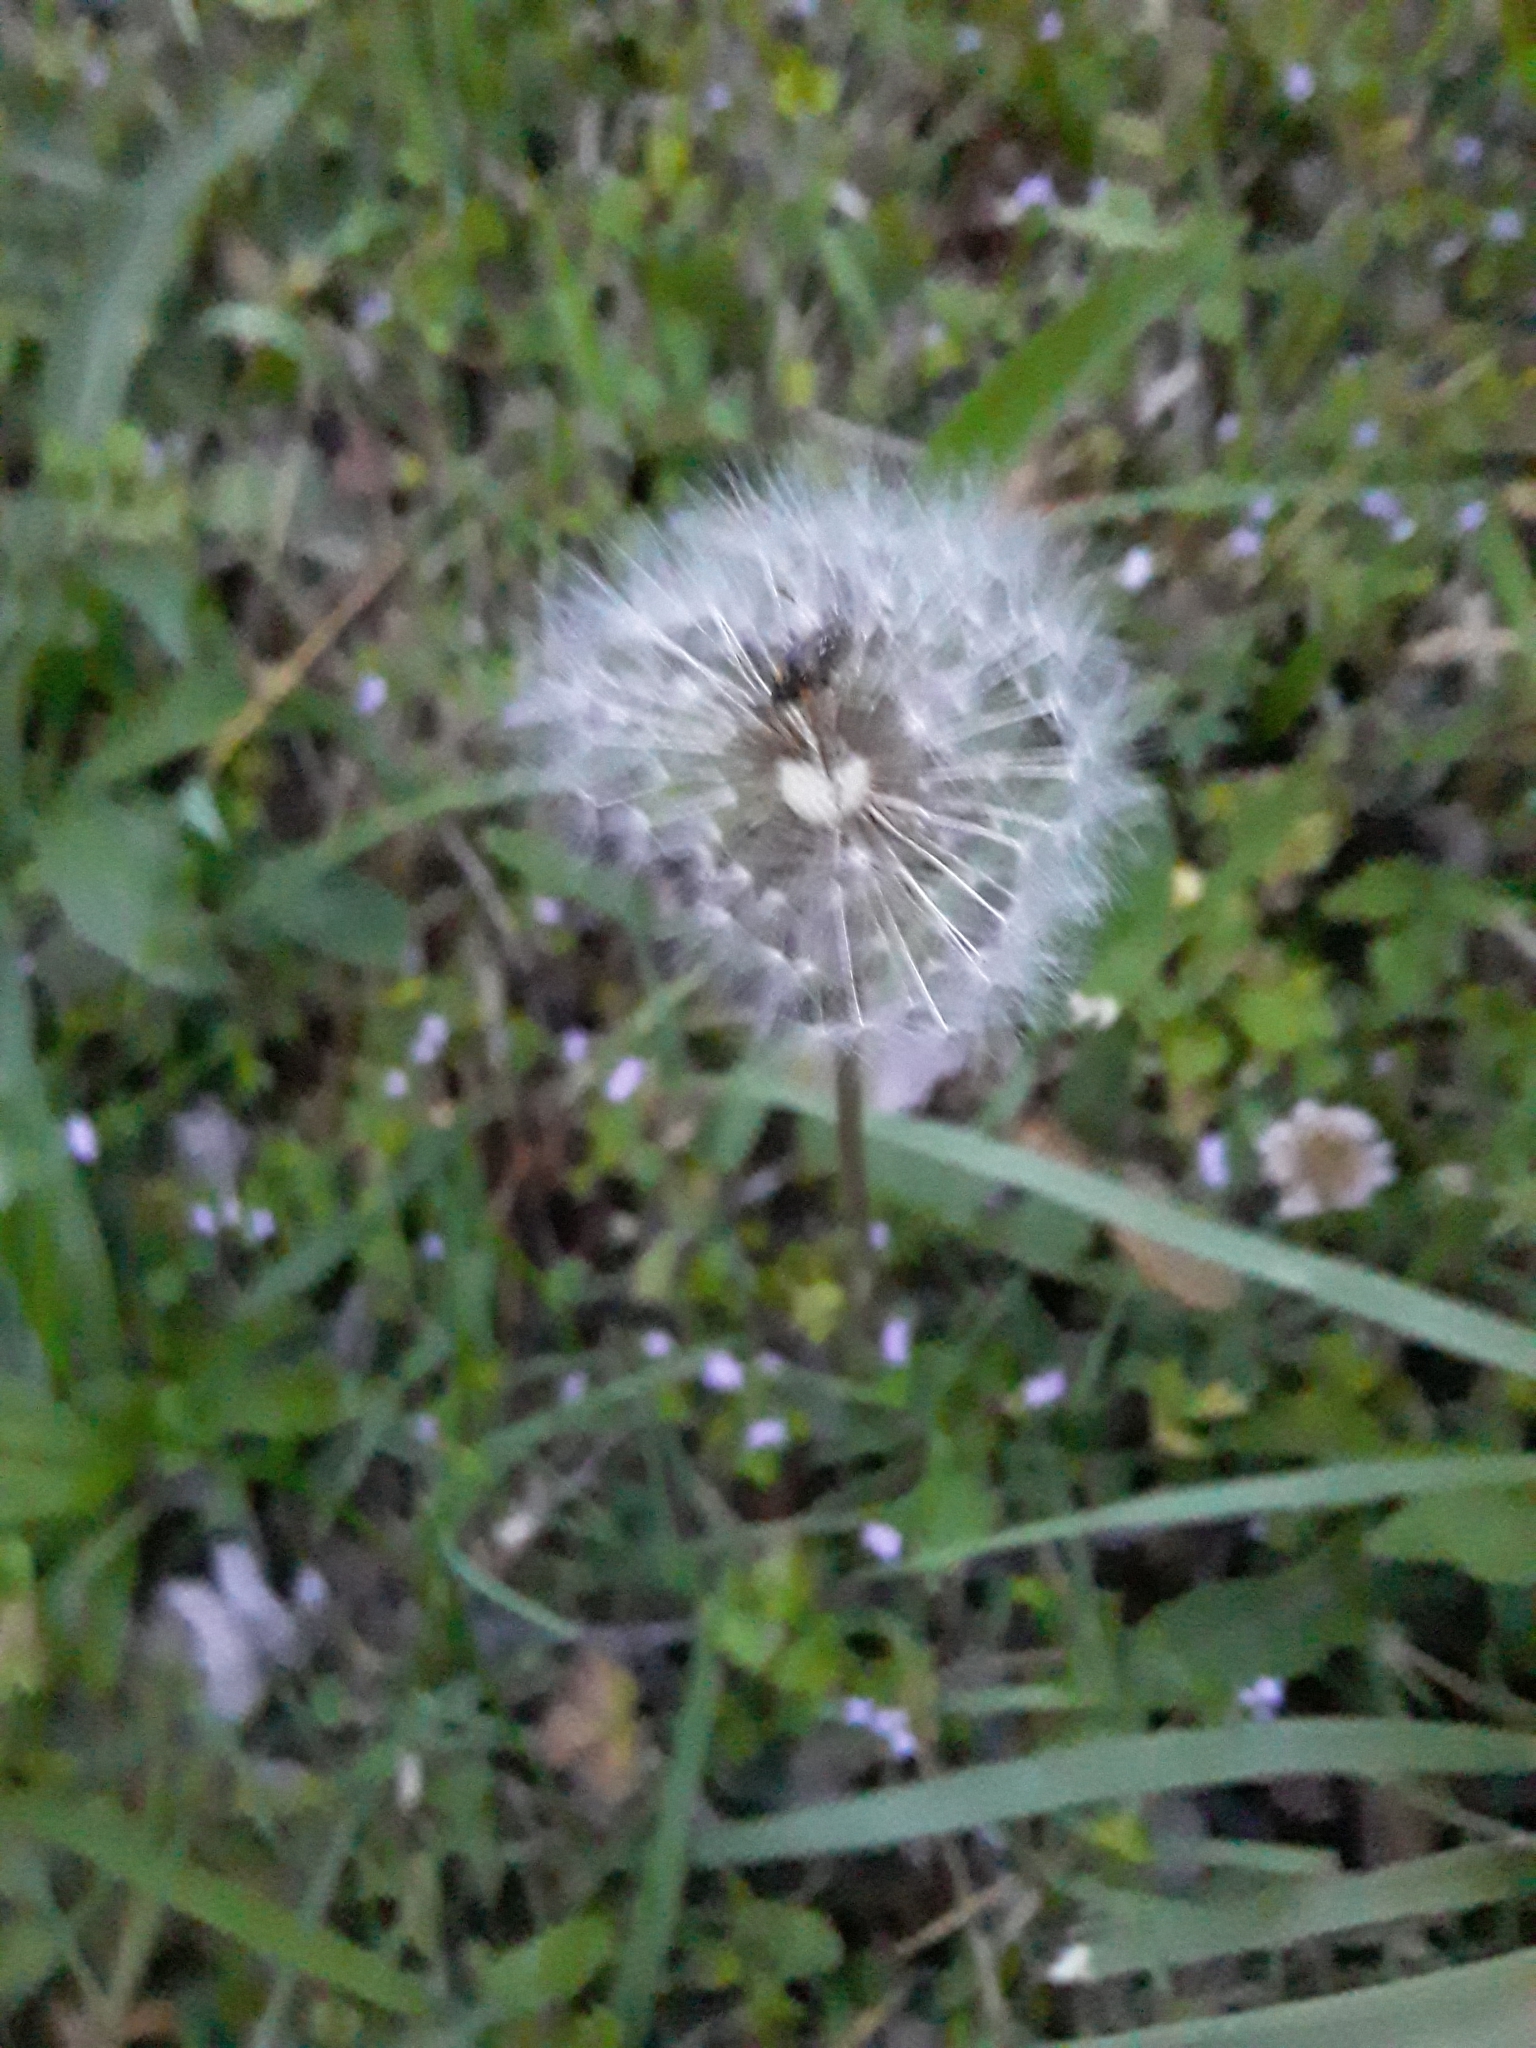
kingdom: Plantae
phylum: Tracheophyta
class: Magnoliopsida
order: Asterales
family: Asteraceae
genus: Taraxacum
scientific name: Taraxacum officinale
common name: Common dandelion
